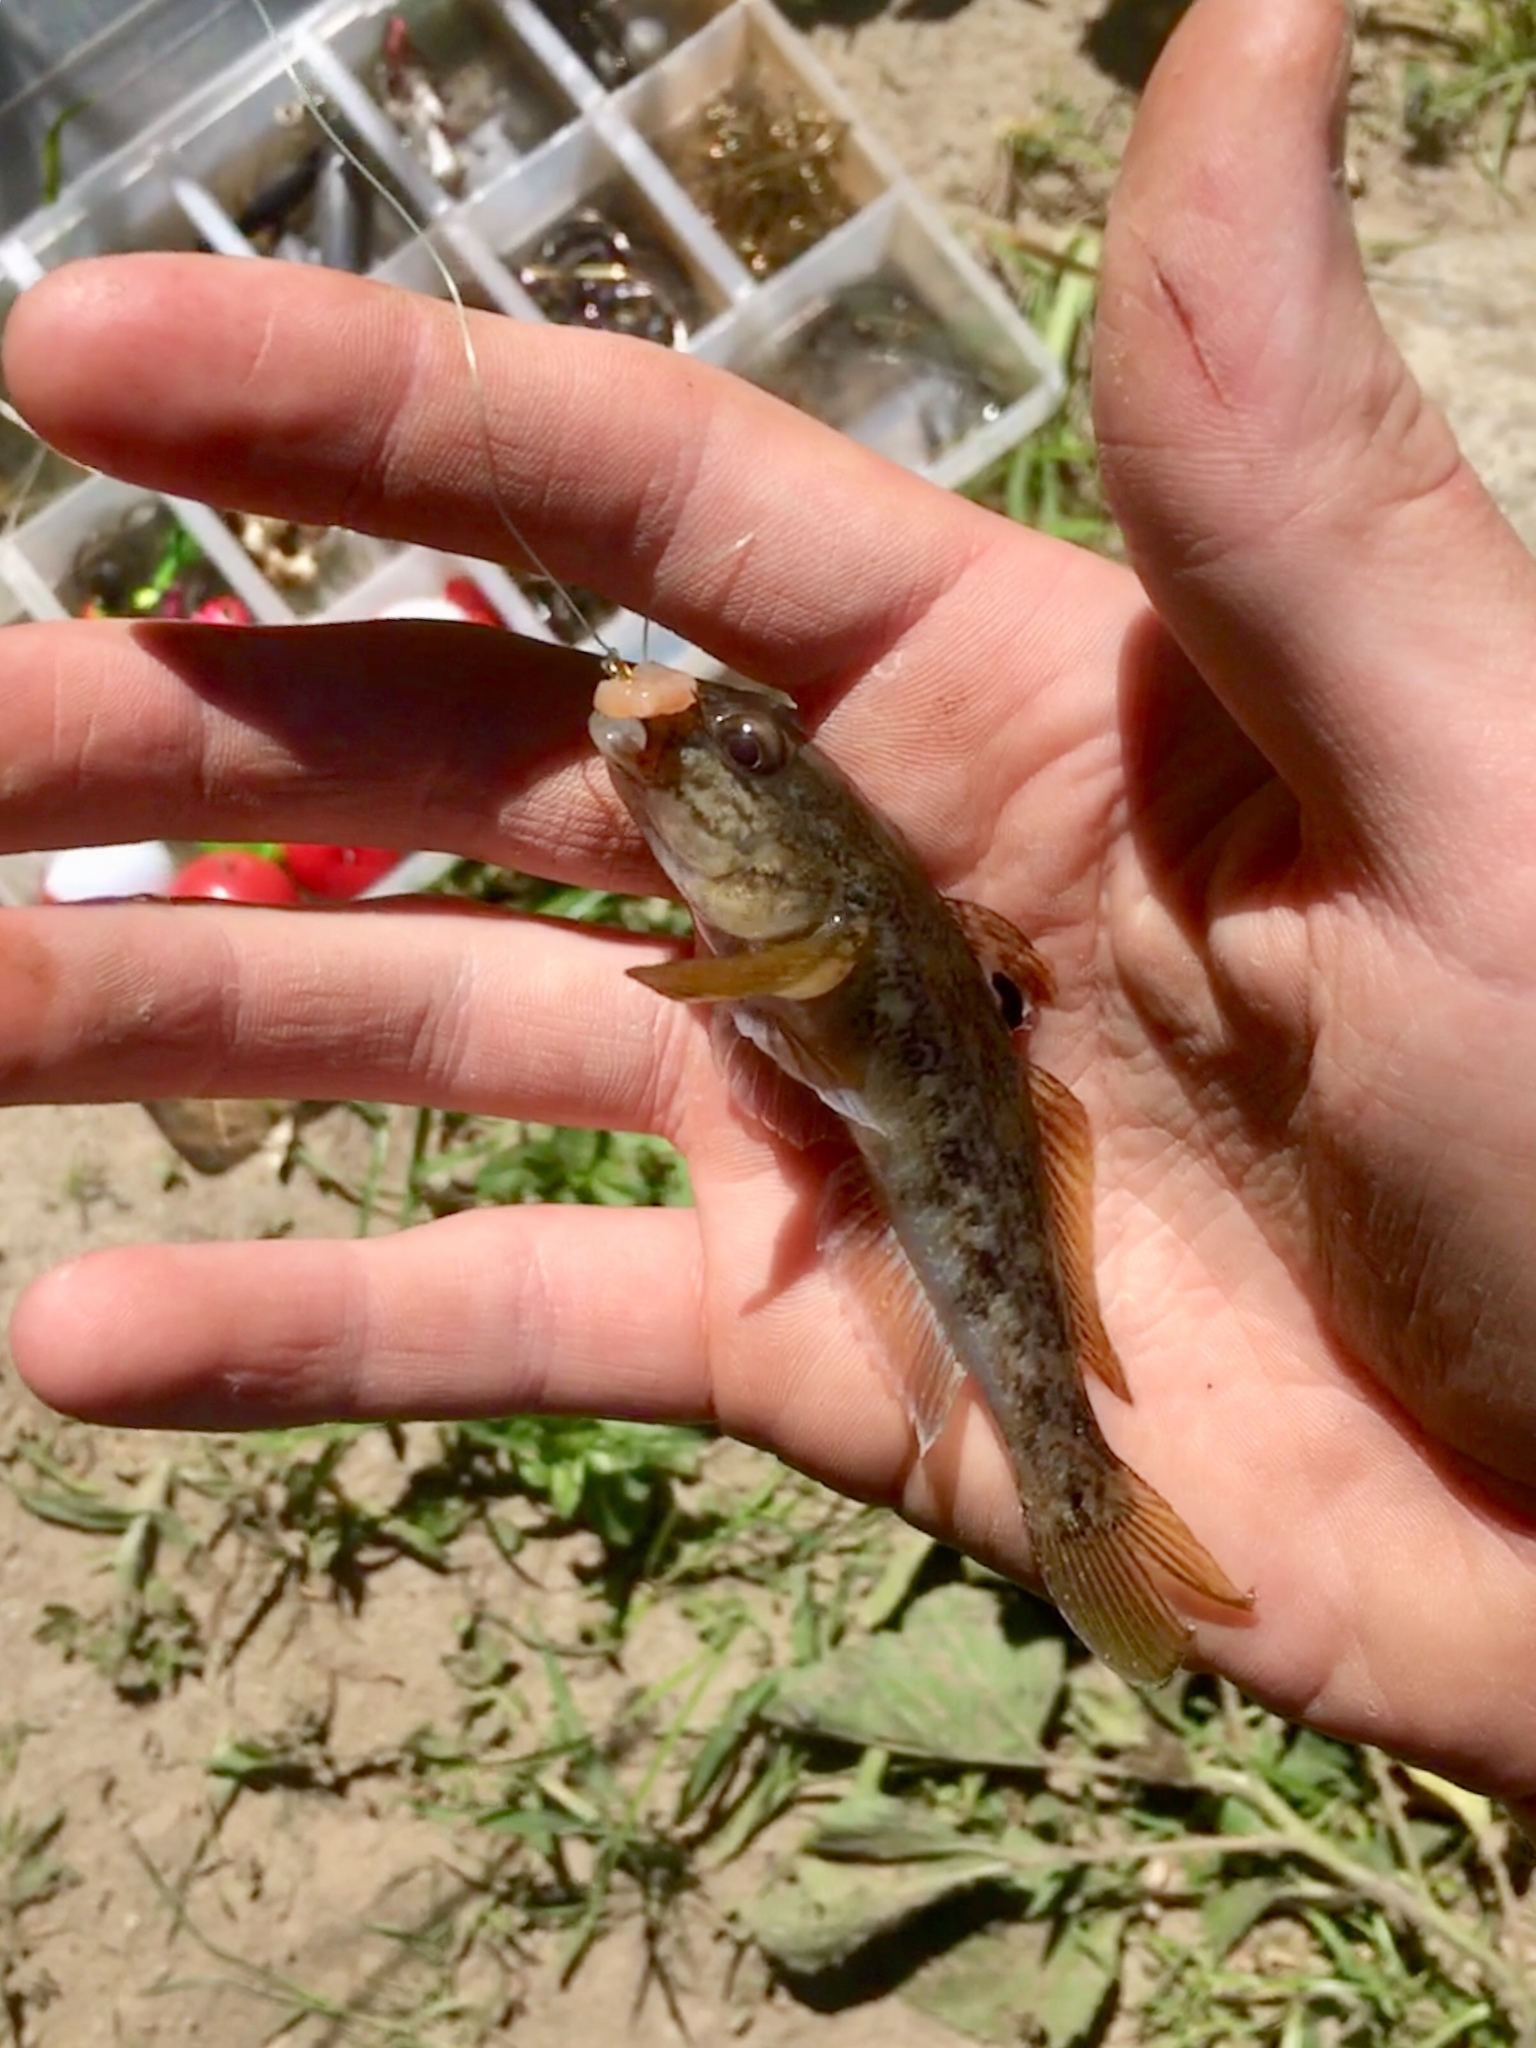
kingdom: Animalia
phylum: Chordata
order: Perciformes
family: Gobiidae
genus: Neogobius
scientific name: Neogobius melanostomus
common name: Round goby
